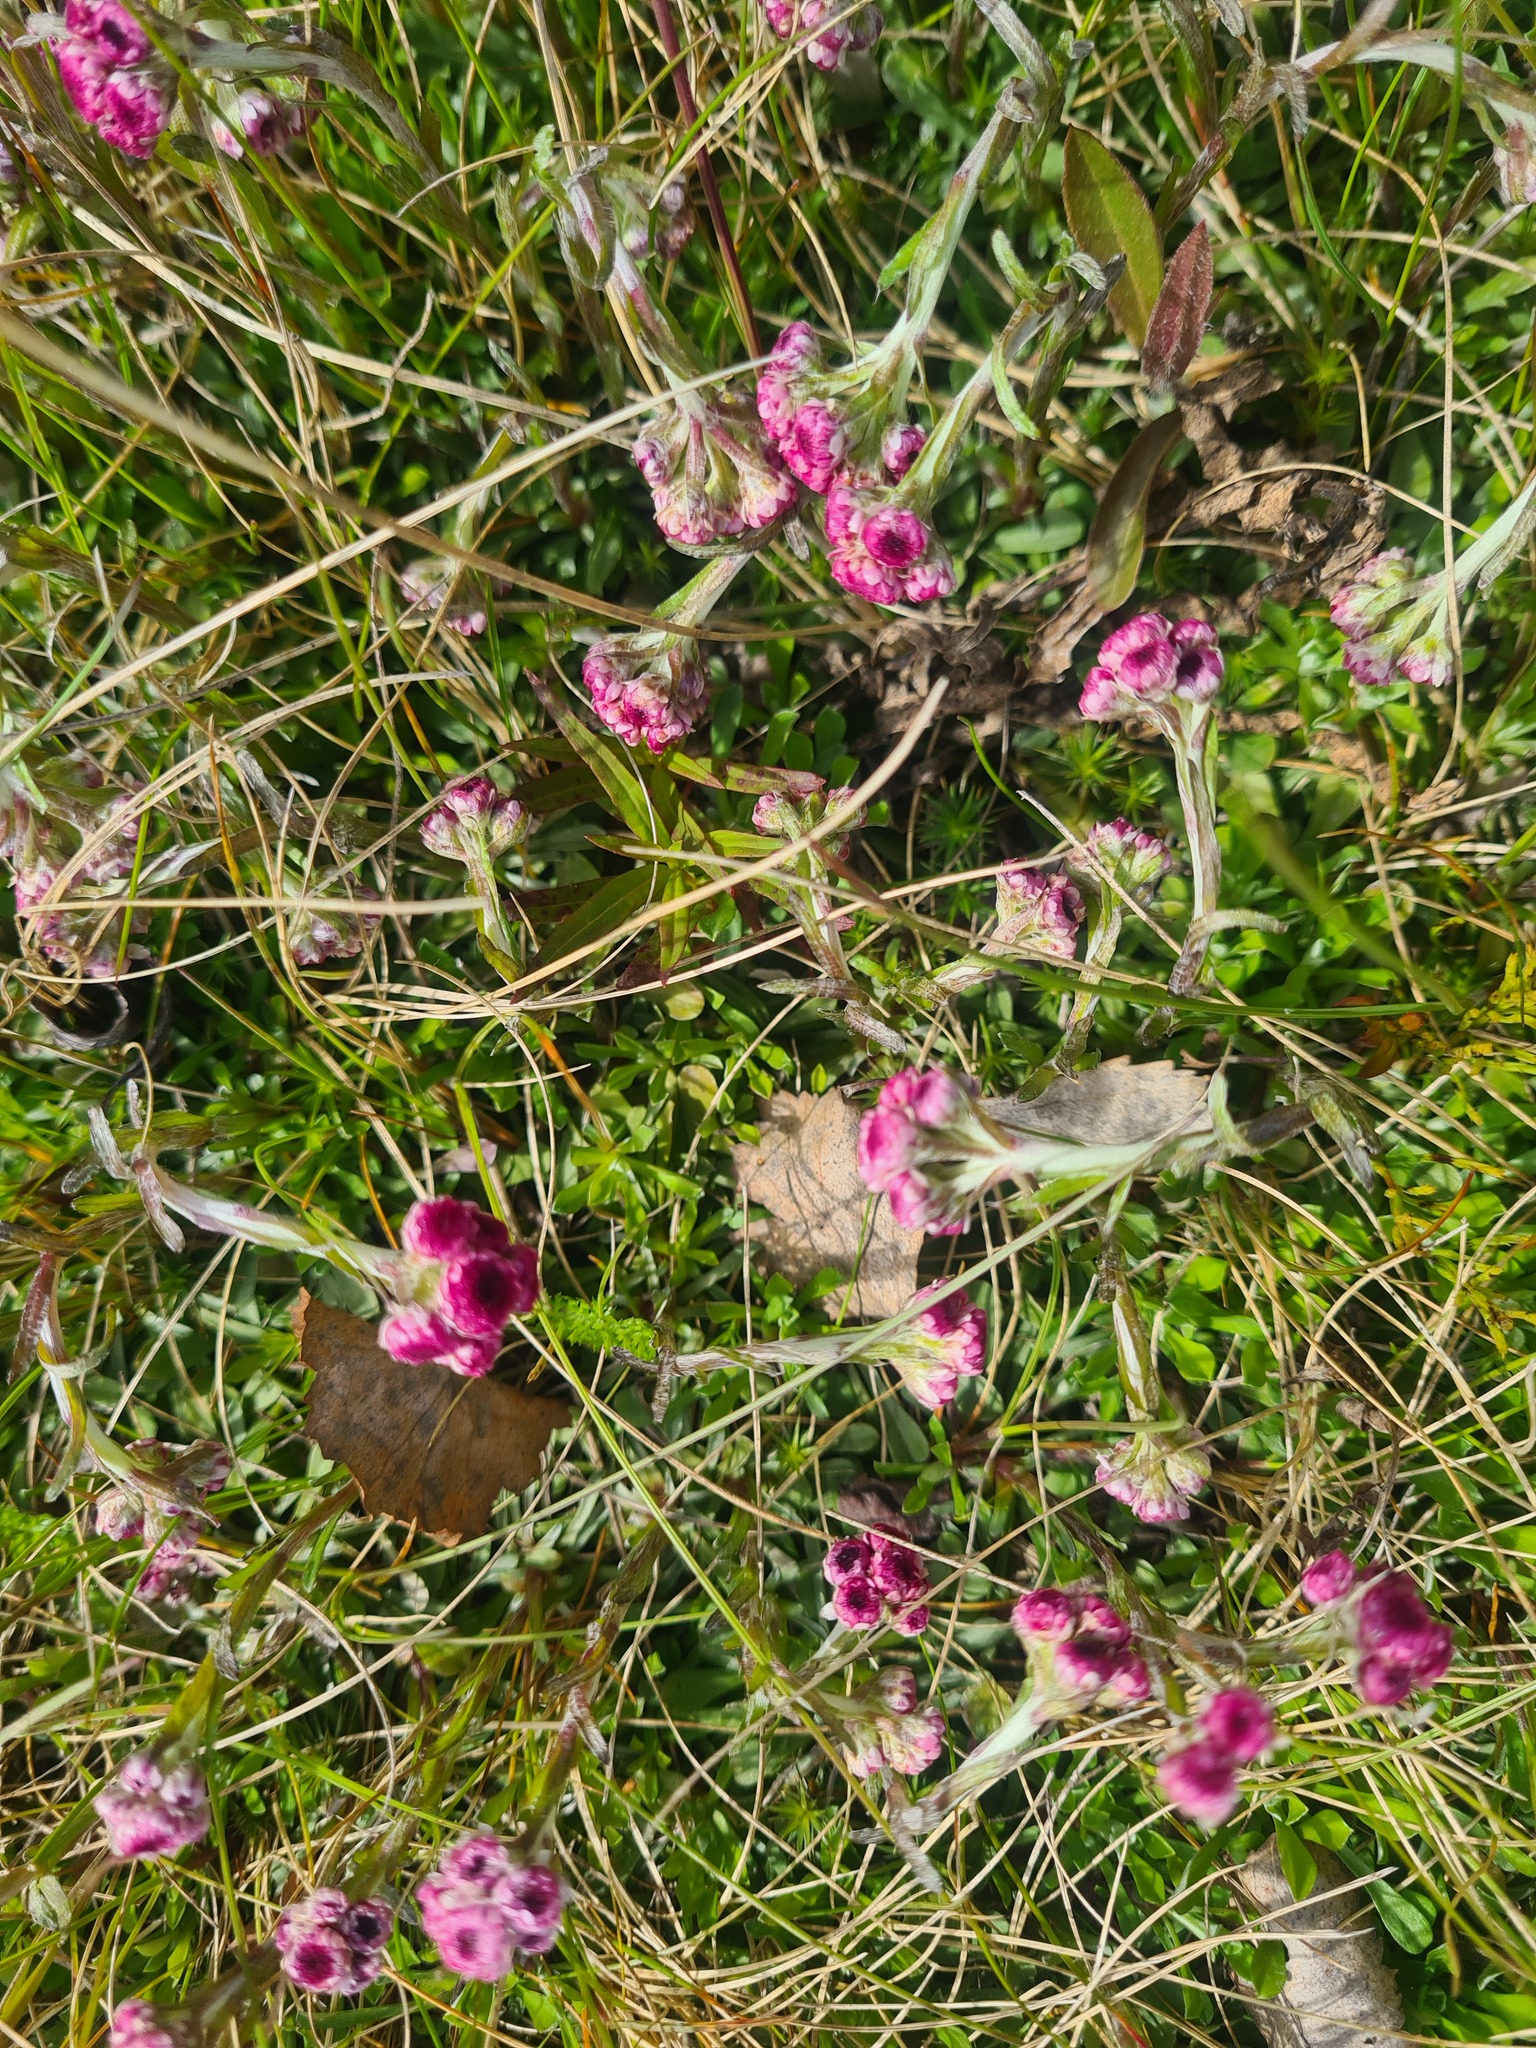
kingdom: Plantae
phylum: Tracheophyta
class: Magnoliopsida
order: Asterales
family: Asteraceae
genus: Antennaria
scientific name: Antennaria dioica
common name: Mountain everlasting
